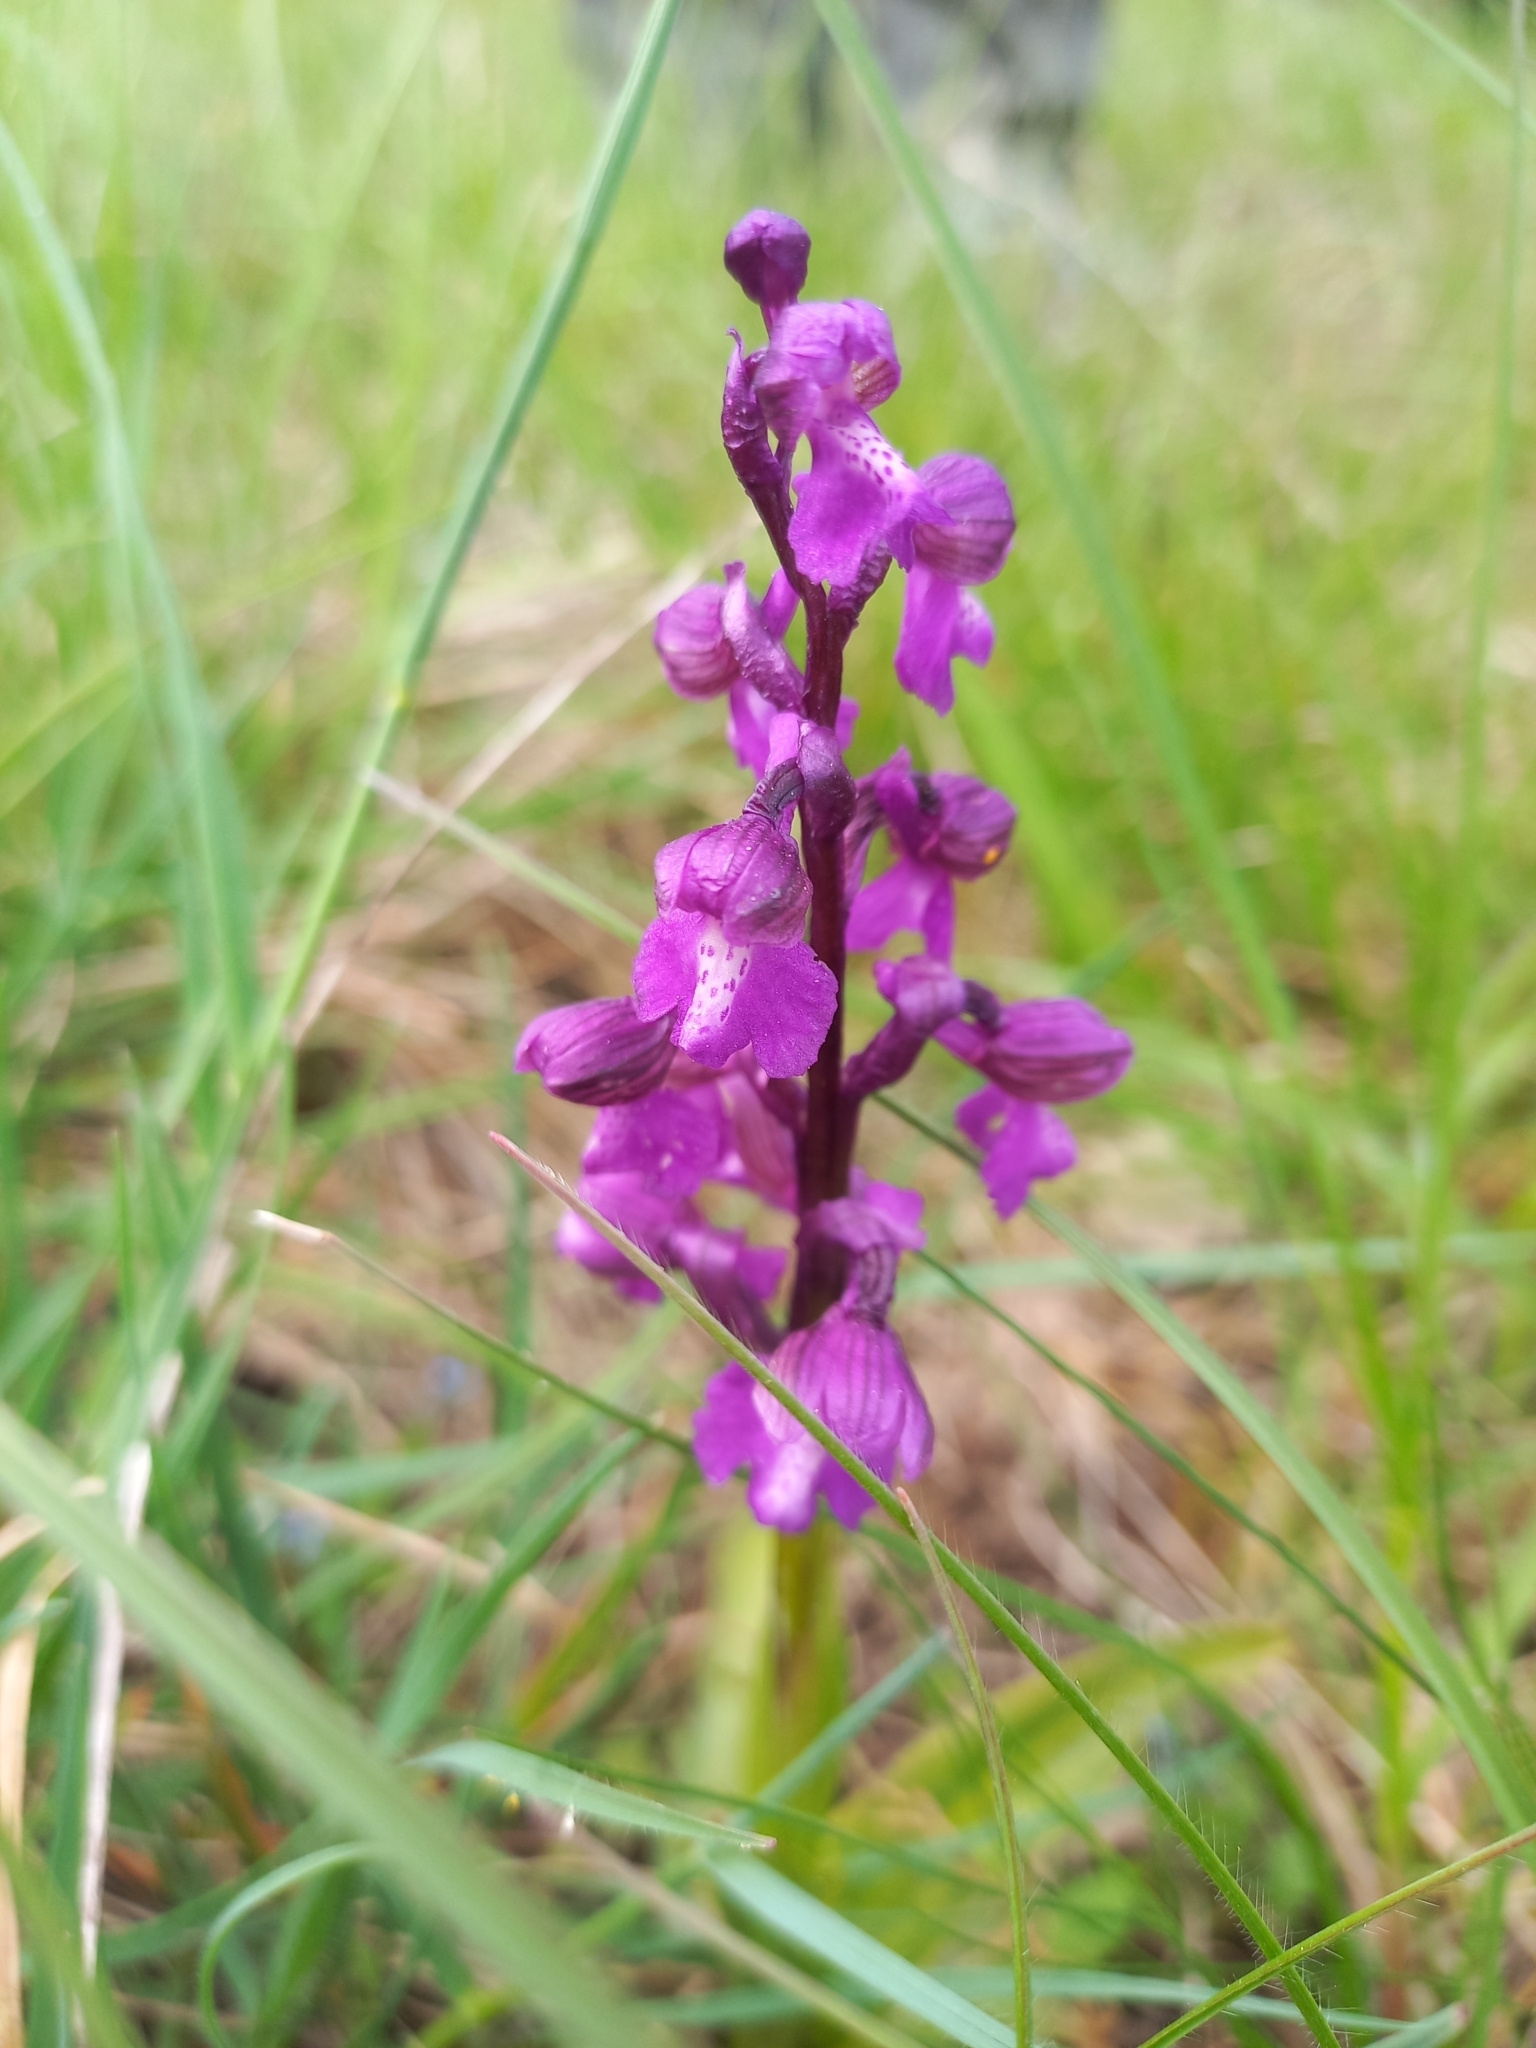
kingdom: Plantae
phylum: Tracheophyta
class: Liliopsida
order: Asparagales
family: Orchidaceae
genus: Anacamptis
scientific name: Anacamptis morio
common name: Green-winged orchid
